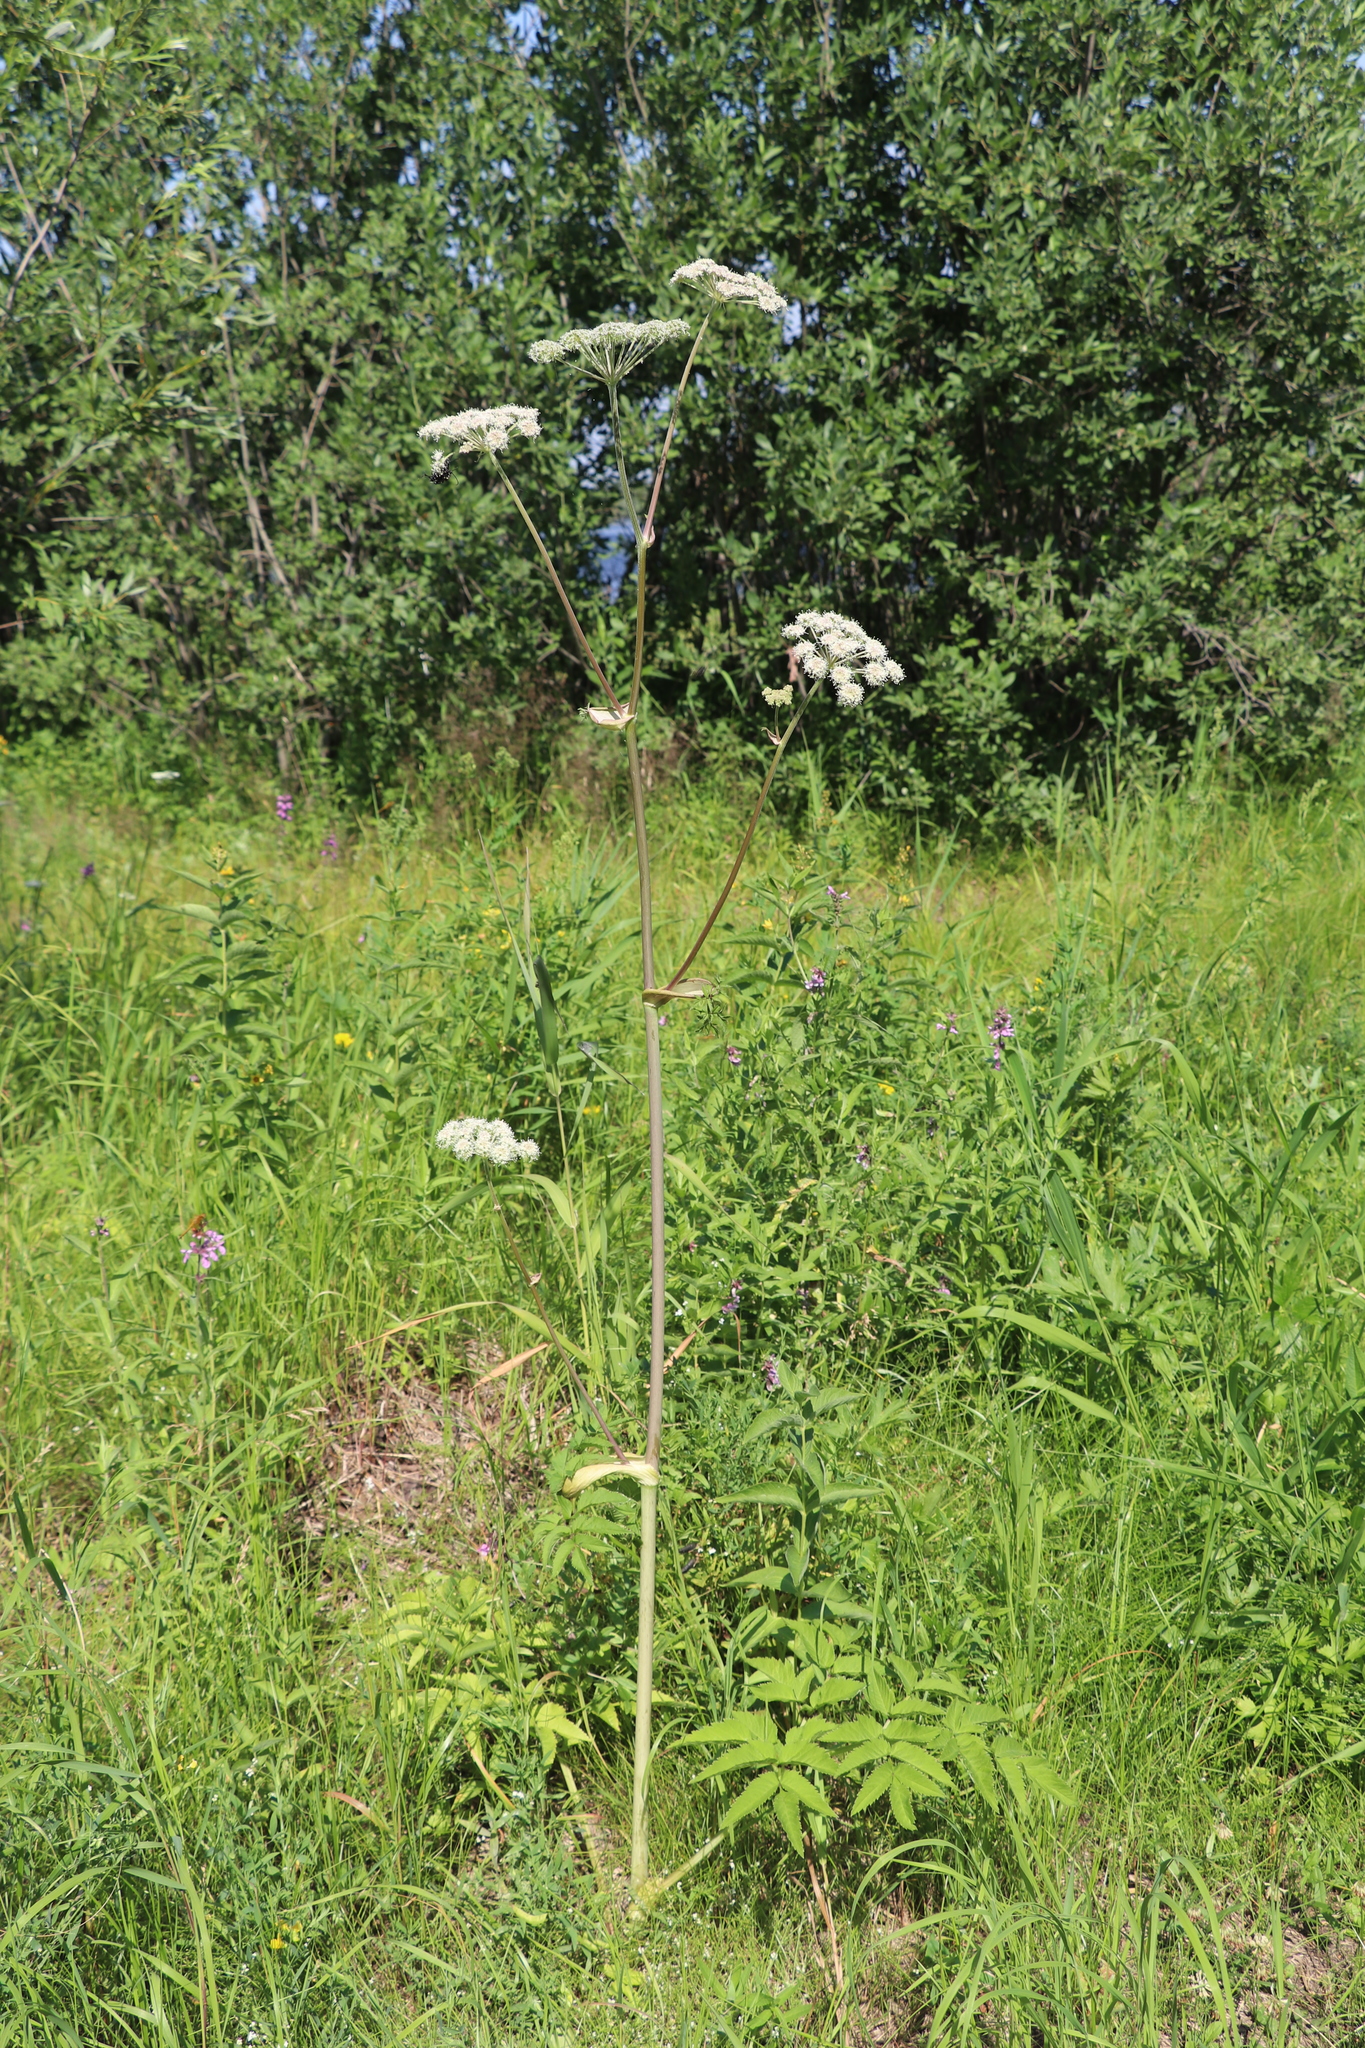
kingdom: Plantae
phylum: Tracheophyta
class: Magnoliopsida
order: Apiales
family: Apiaceae
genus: Angelica
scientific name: Angelica sylvestris
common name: Wild angelica
